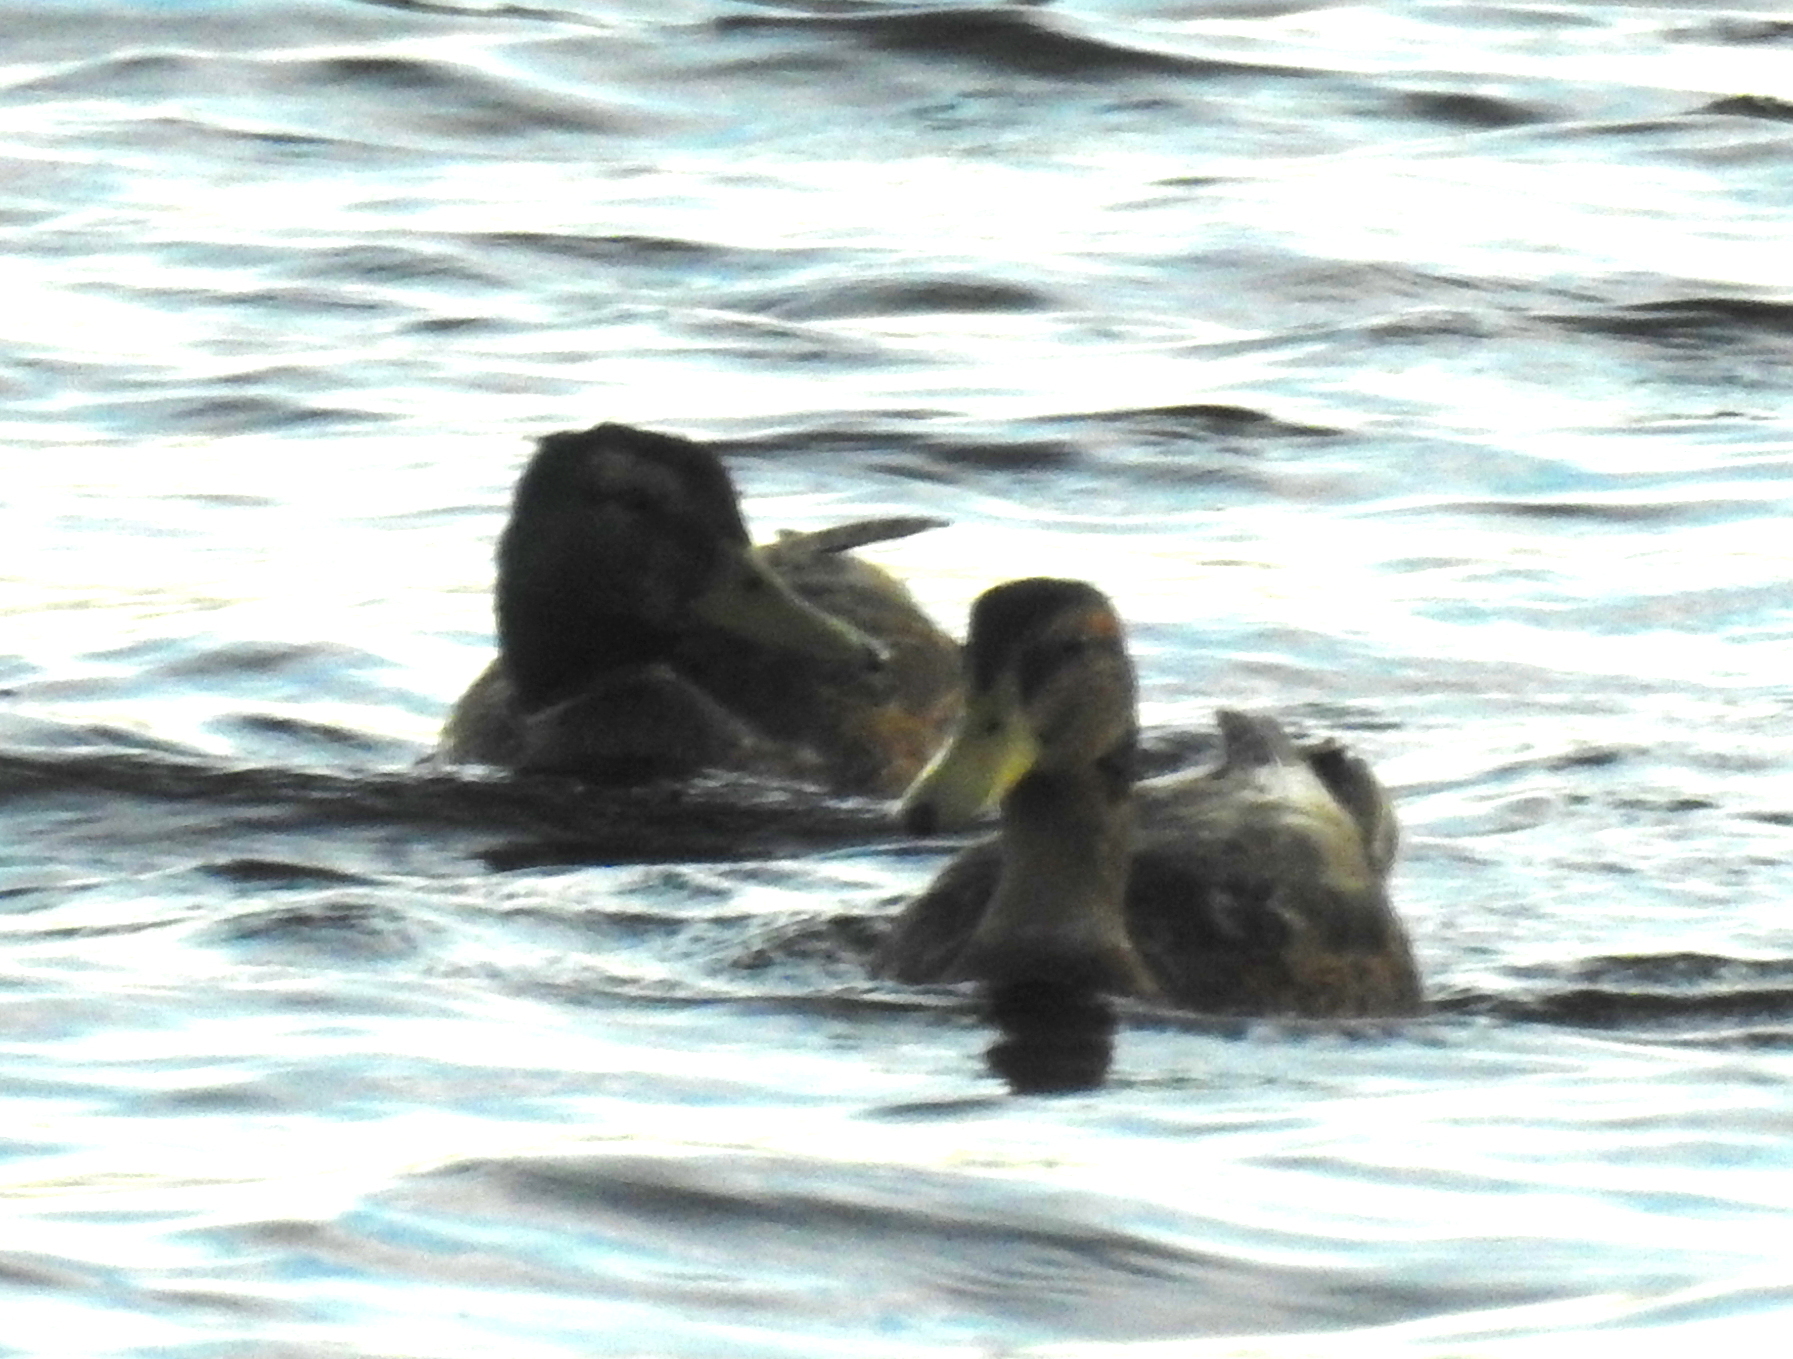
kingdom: Animalia
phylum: Chordata
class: Aves
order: Anseriformes
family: Anatidae
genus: Anas
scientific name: Anas platyrhynchos
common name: Mallard
